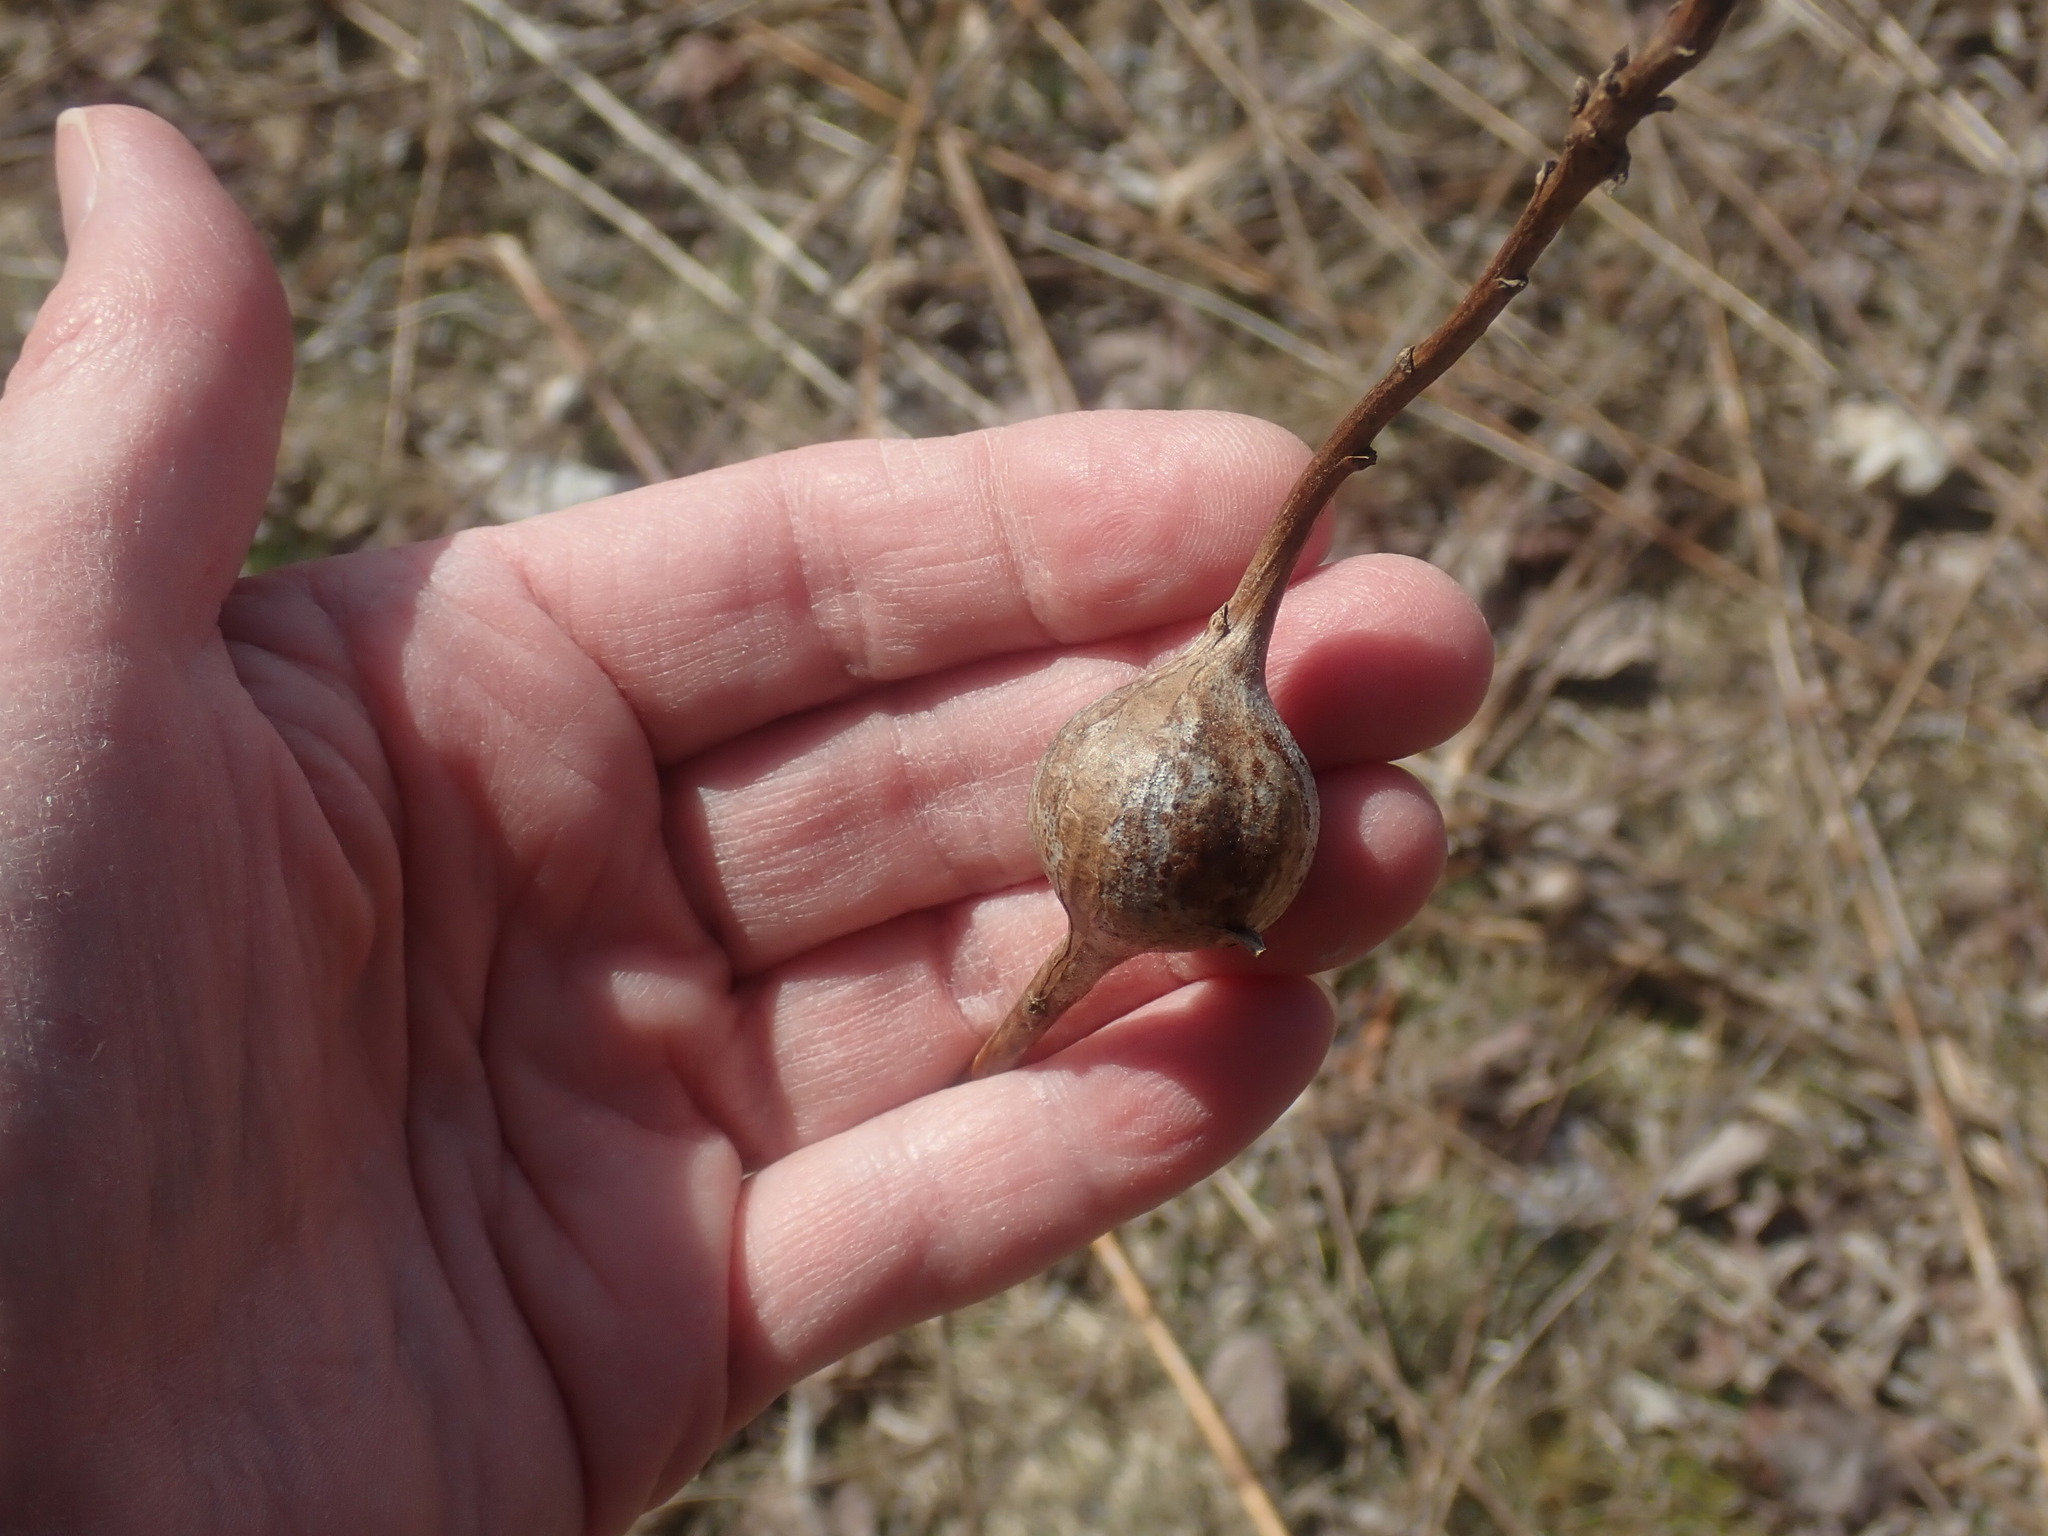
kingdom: Animalia
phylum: Arthropoda
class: Insecta
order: Diptera
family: Tephritidae
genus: Eurosta
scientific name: Eurosta solidaginis
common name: Goldenrod gall fly
